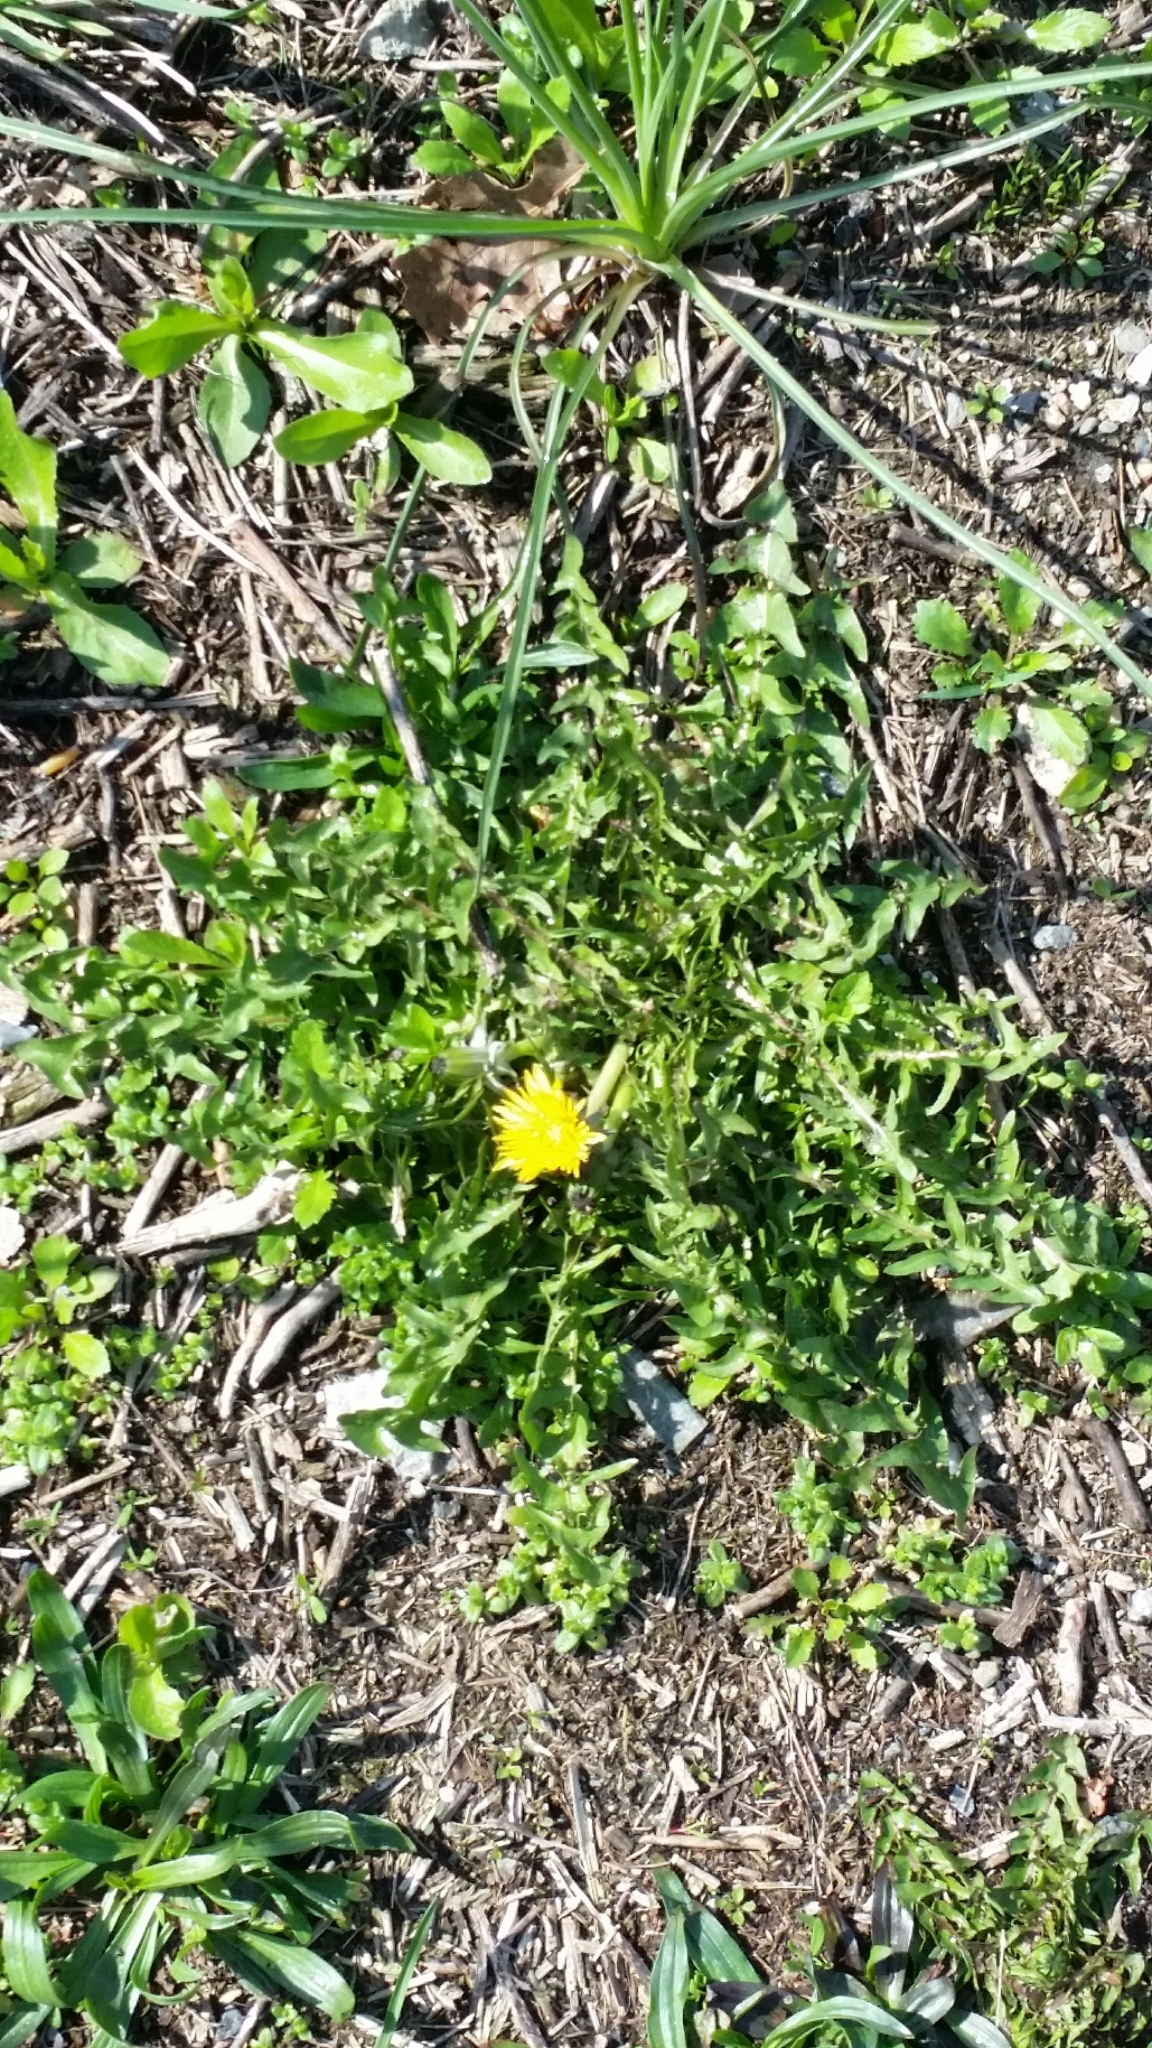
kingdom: Plantae
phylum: Tracheophyta
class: Magnoliopsida
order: Asterales
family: Asteraceae
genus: Taraxacum
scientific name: Taraxacum officinale
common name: Common dandelion
